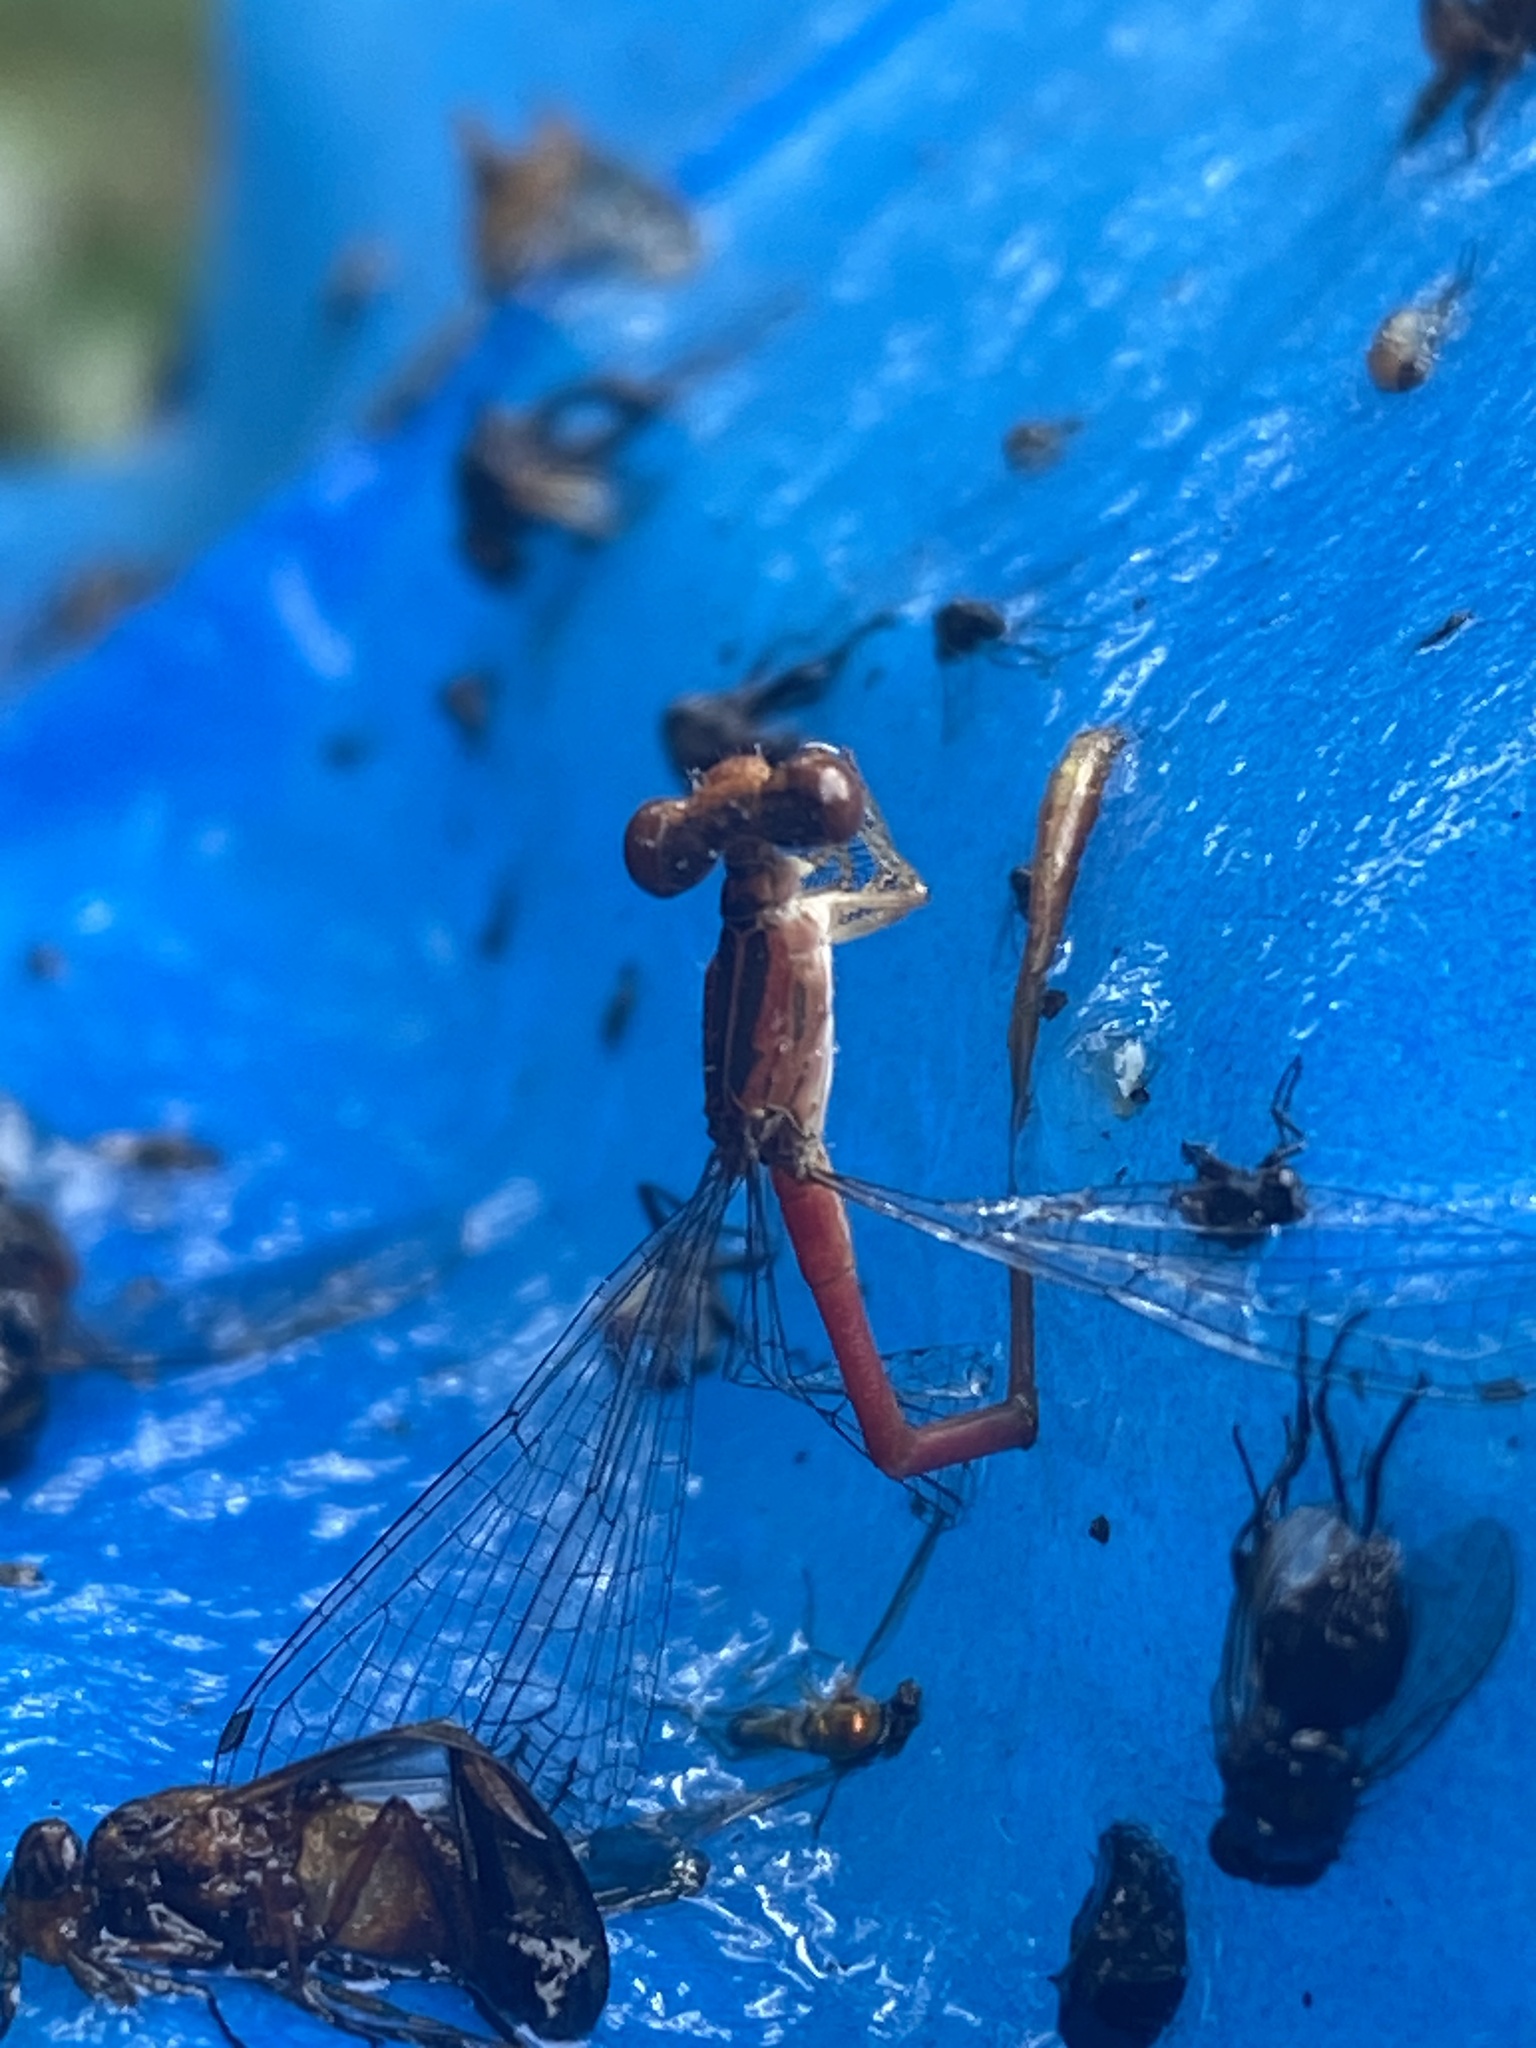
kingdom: Animalia
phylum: Arthropoda
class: Insecta
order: Odonata
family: Coenagrionidae
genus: Telebasis
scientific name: Telebasis byersi
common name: Duckweed firetail
